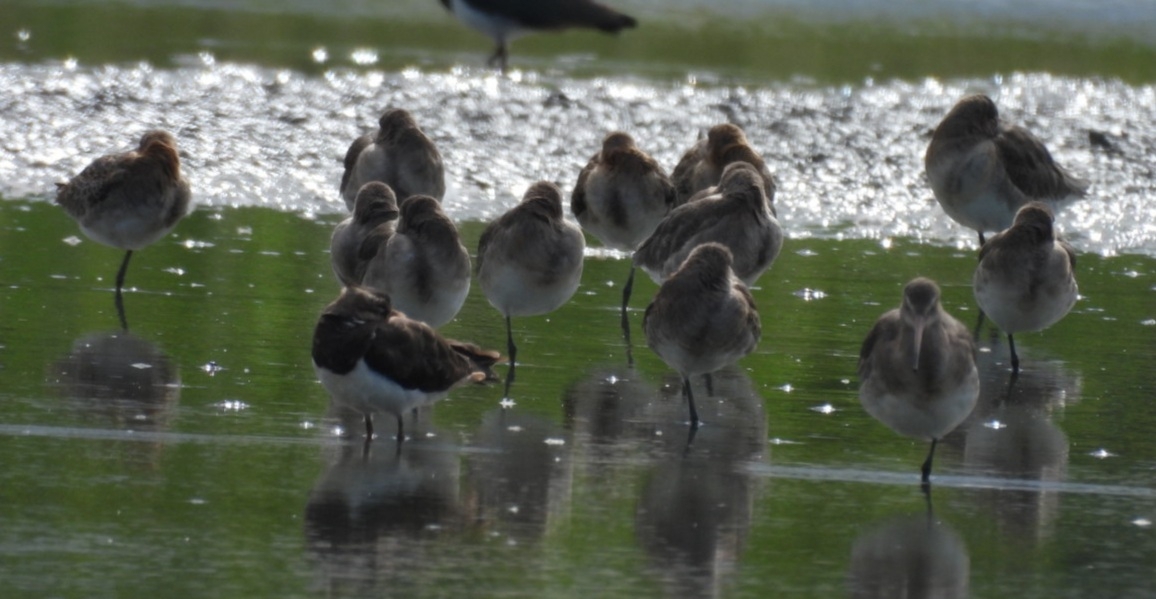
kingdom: Animalia
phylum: Chordata
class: Aves
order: Charadriiformes
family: Scolopacidae
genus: Limosa
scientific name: Limosa limosa
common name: Black-tailed godwit
